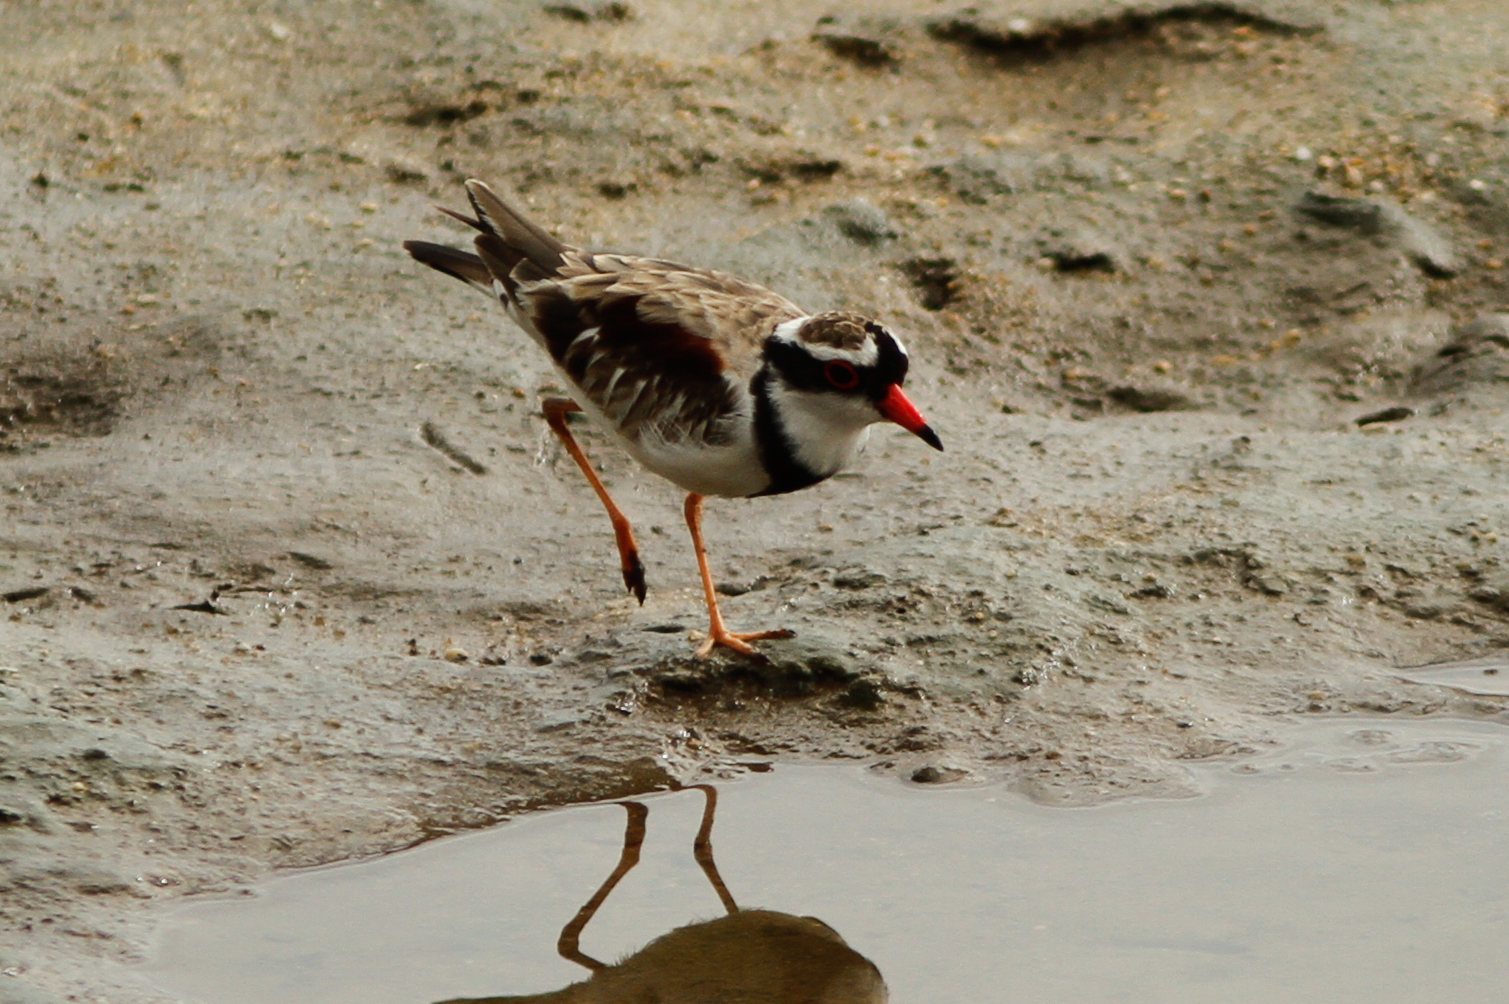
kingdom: Animalia
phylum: Chordata
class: Aves
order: Charadriiformes
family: Charadriidae
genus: Elseyornis
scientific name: Elseyornis melanops
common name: Black-fronted dotterel
